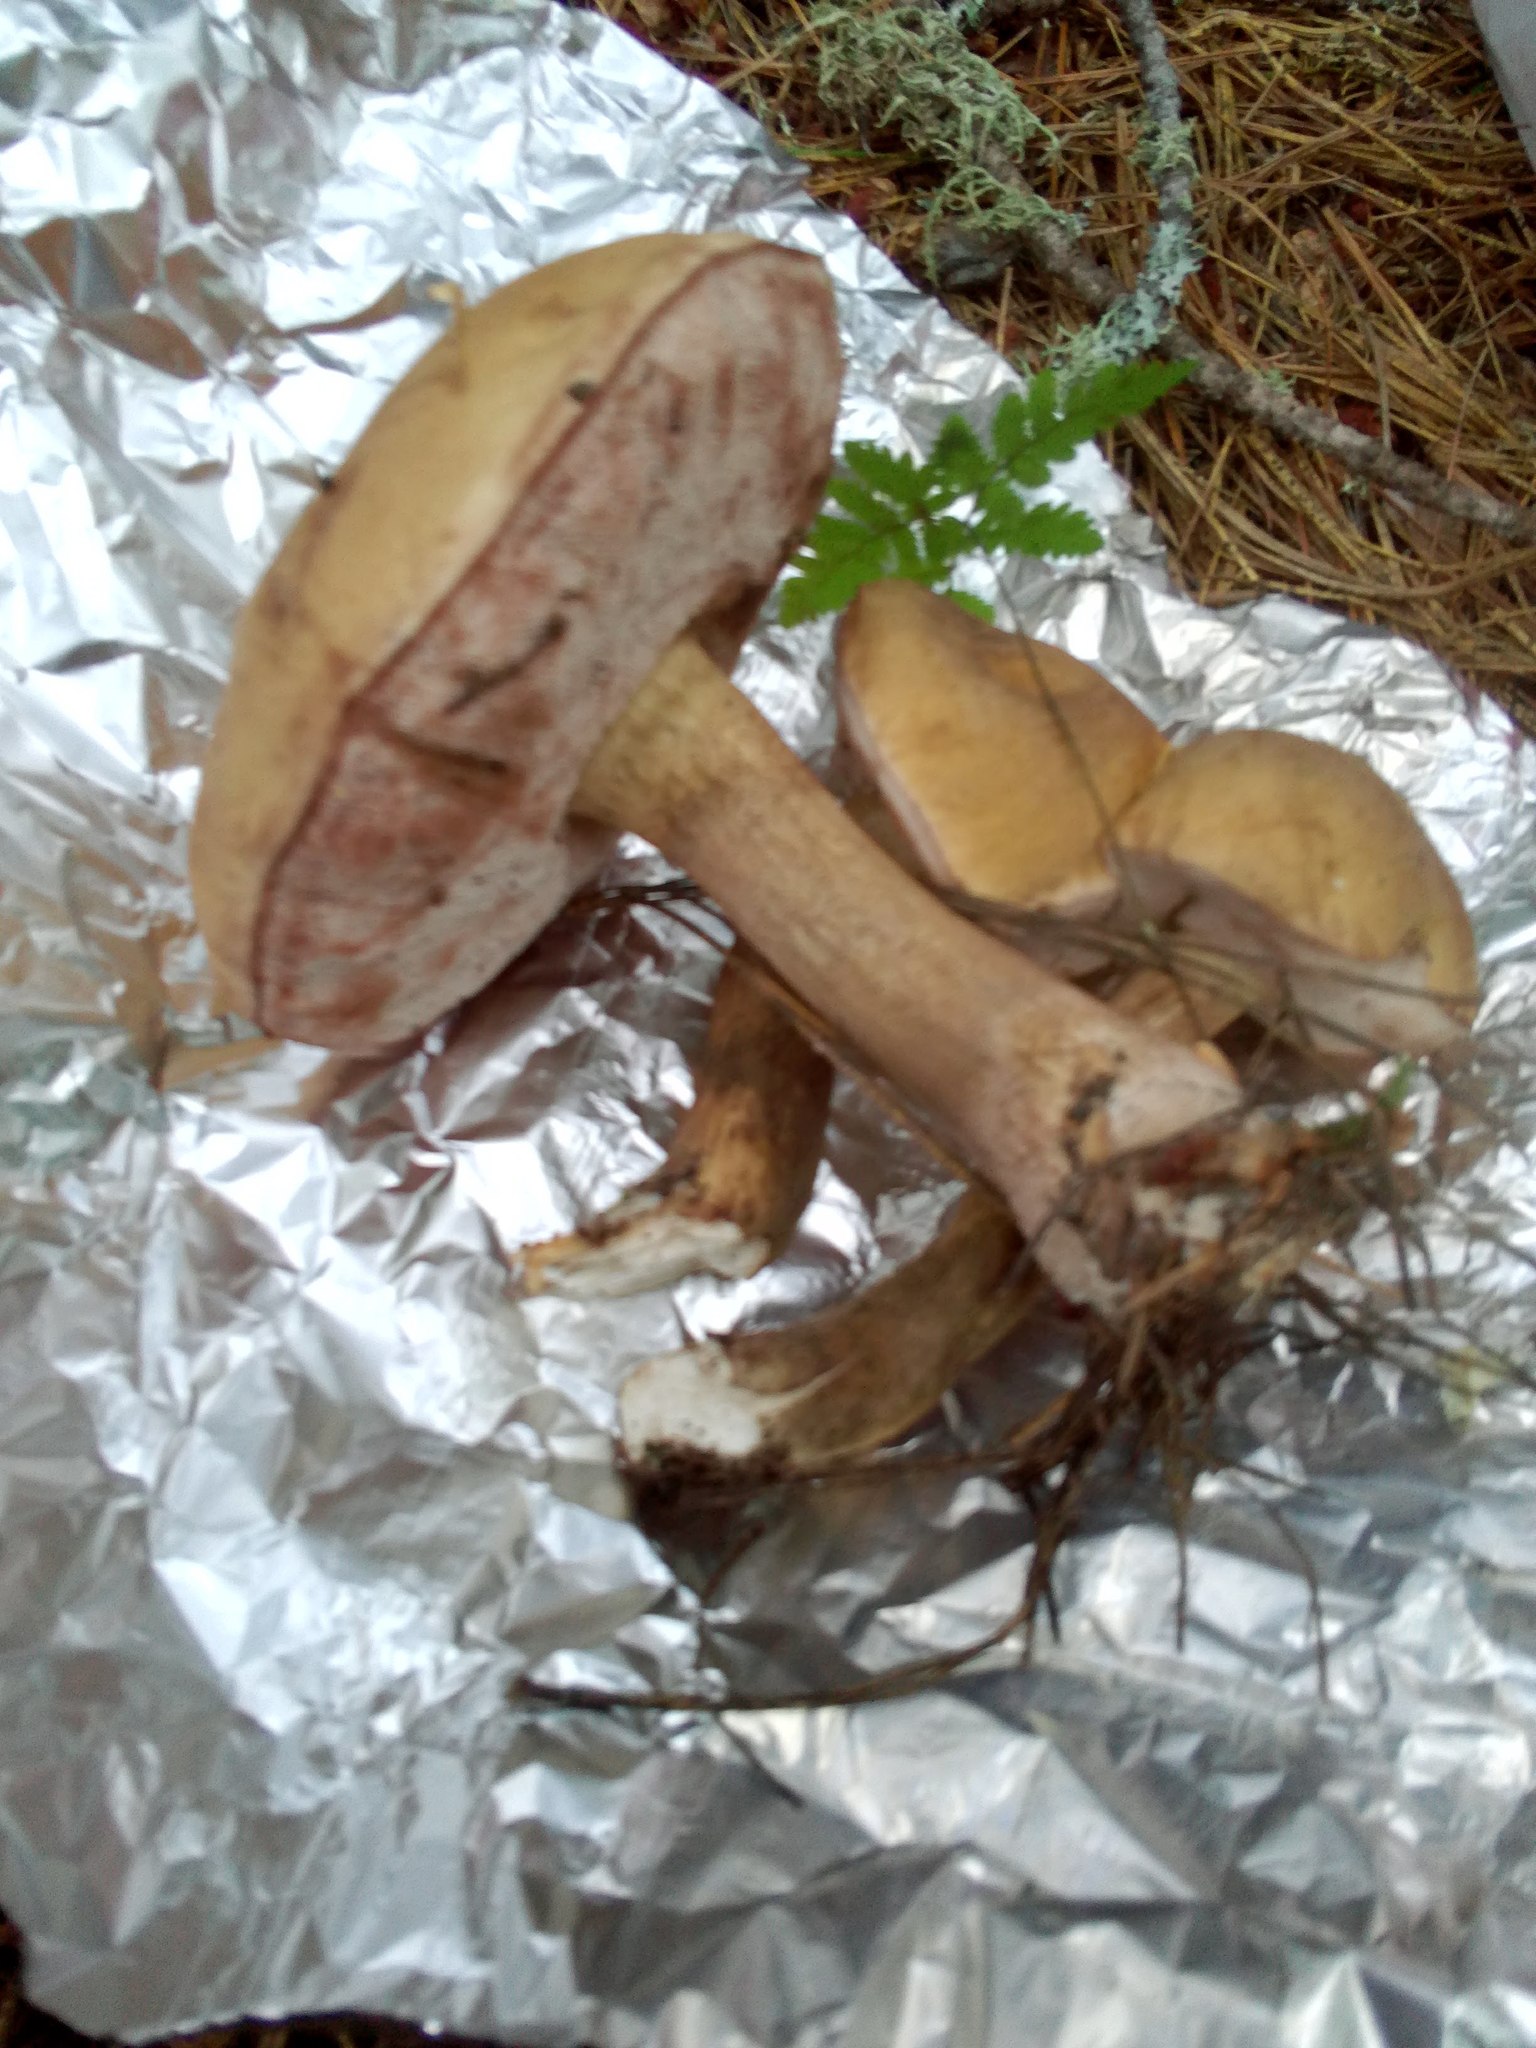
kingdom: Fungi
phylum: Basidiomycota
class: Agaricomycetes
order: Boletales
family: Boletaceae
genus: Tylopilus
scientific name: Tylopilus felleus
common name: Bitter bolete
